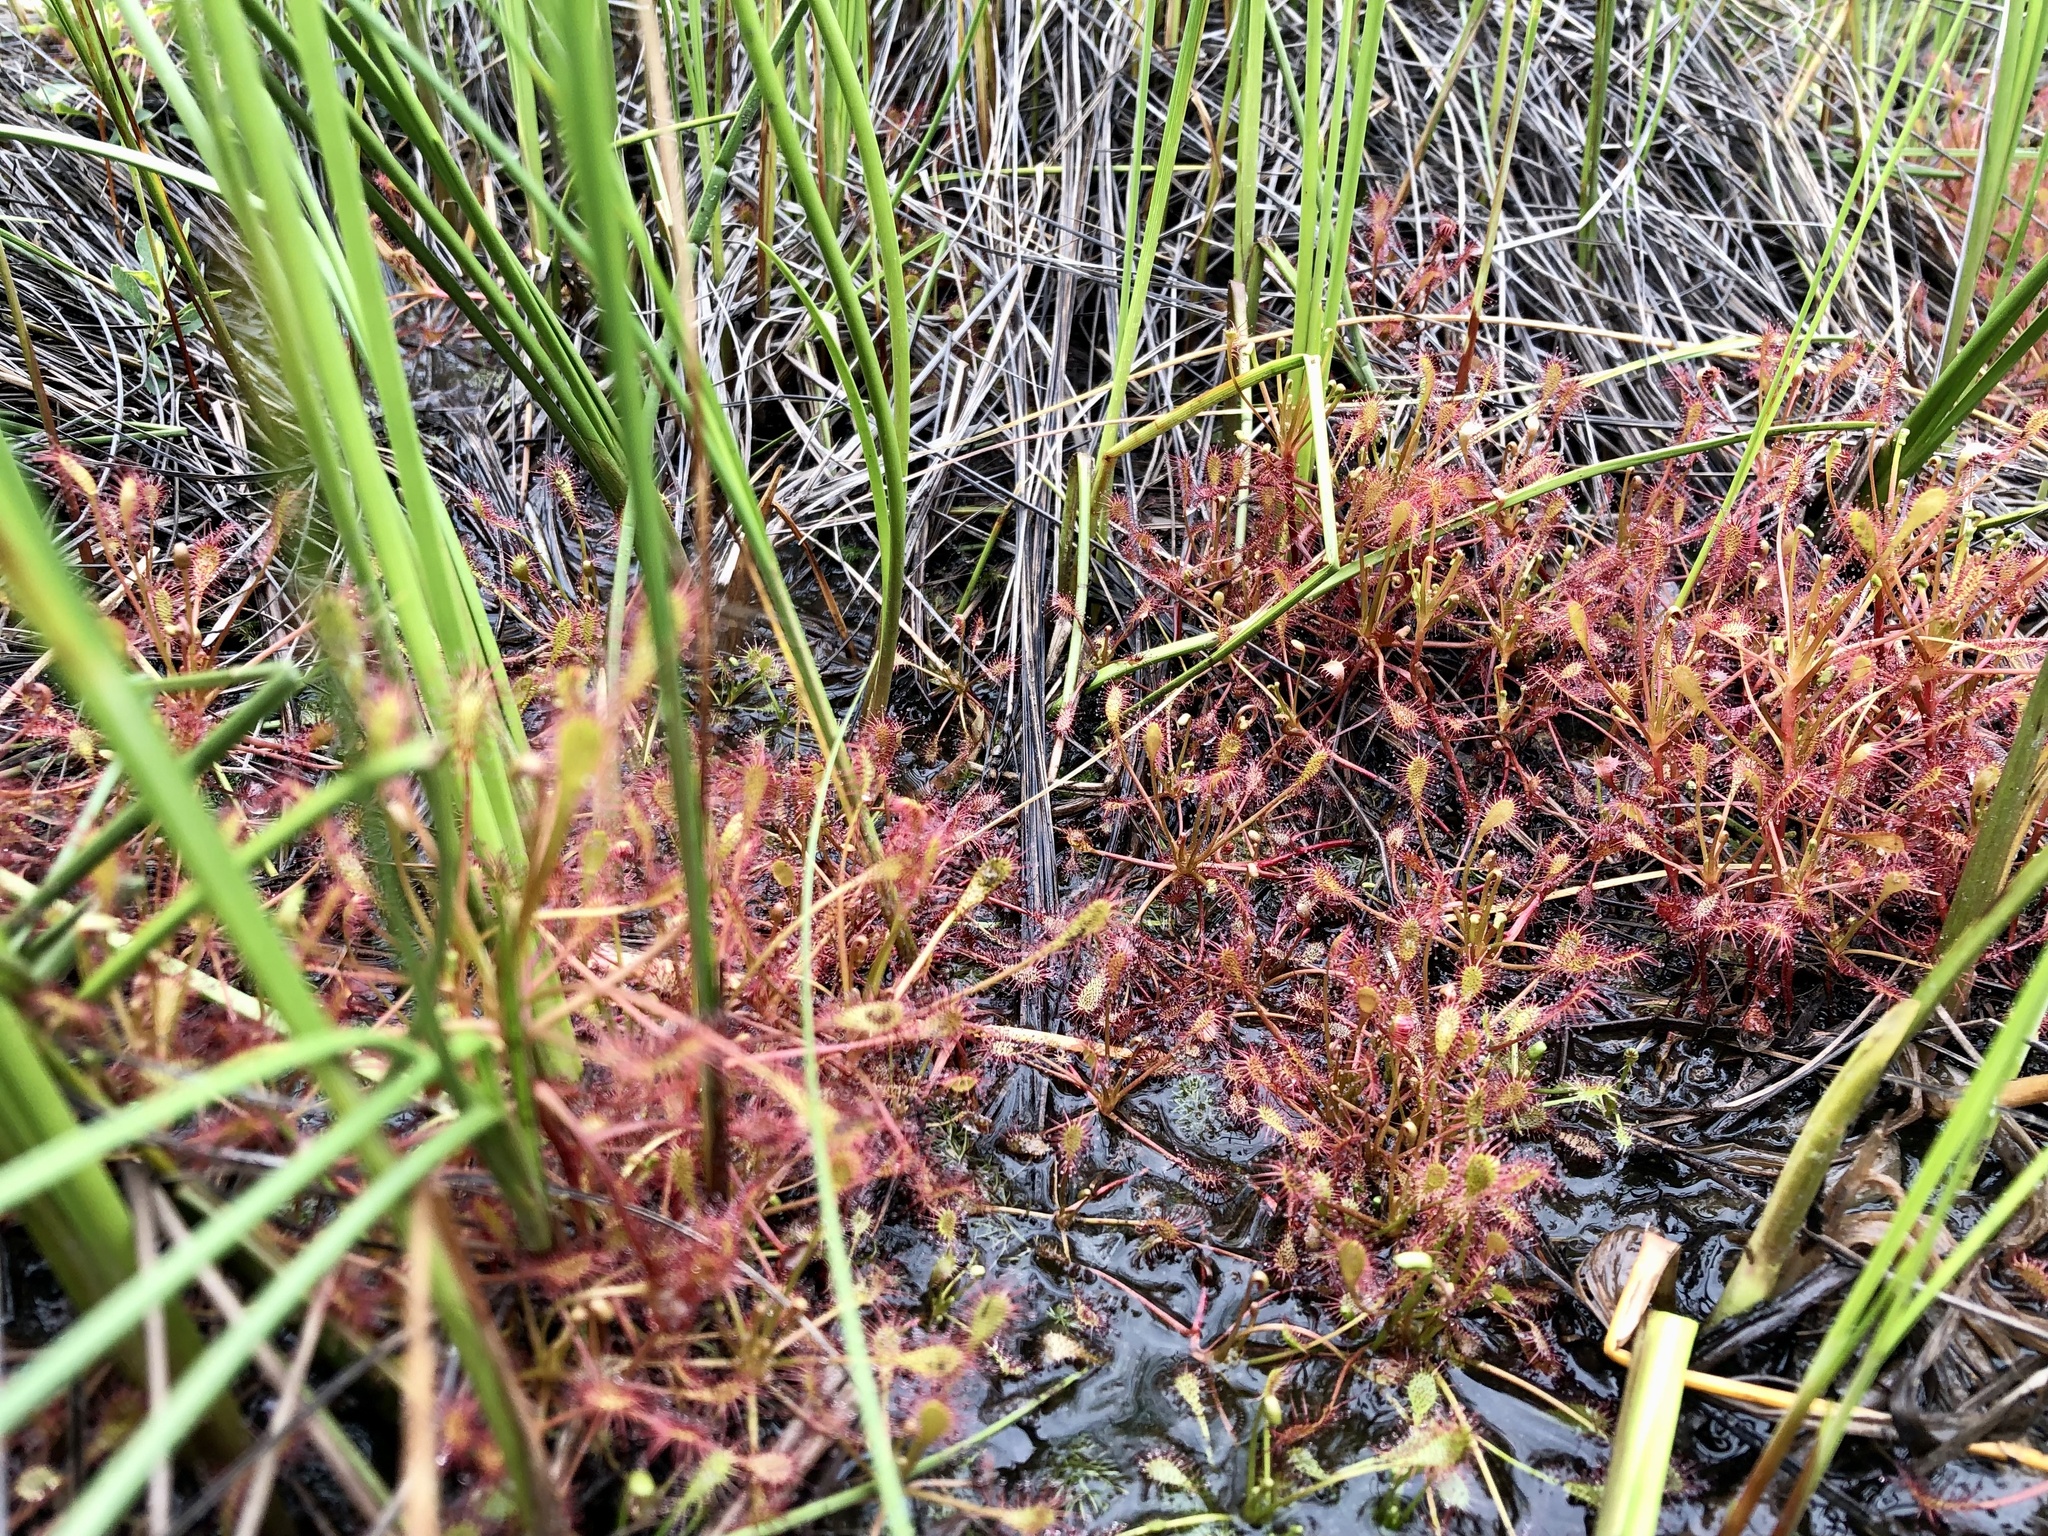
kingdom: Plantae
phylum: Tracheophyta
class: Magnoliopsida
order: Caryophyllales
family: Droseraceae
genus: Drosera
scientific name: Drosera intermedia
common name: Oblong-leaved sundew
